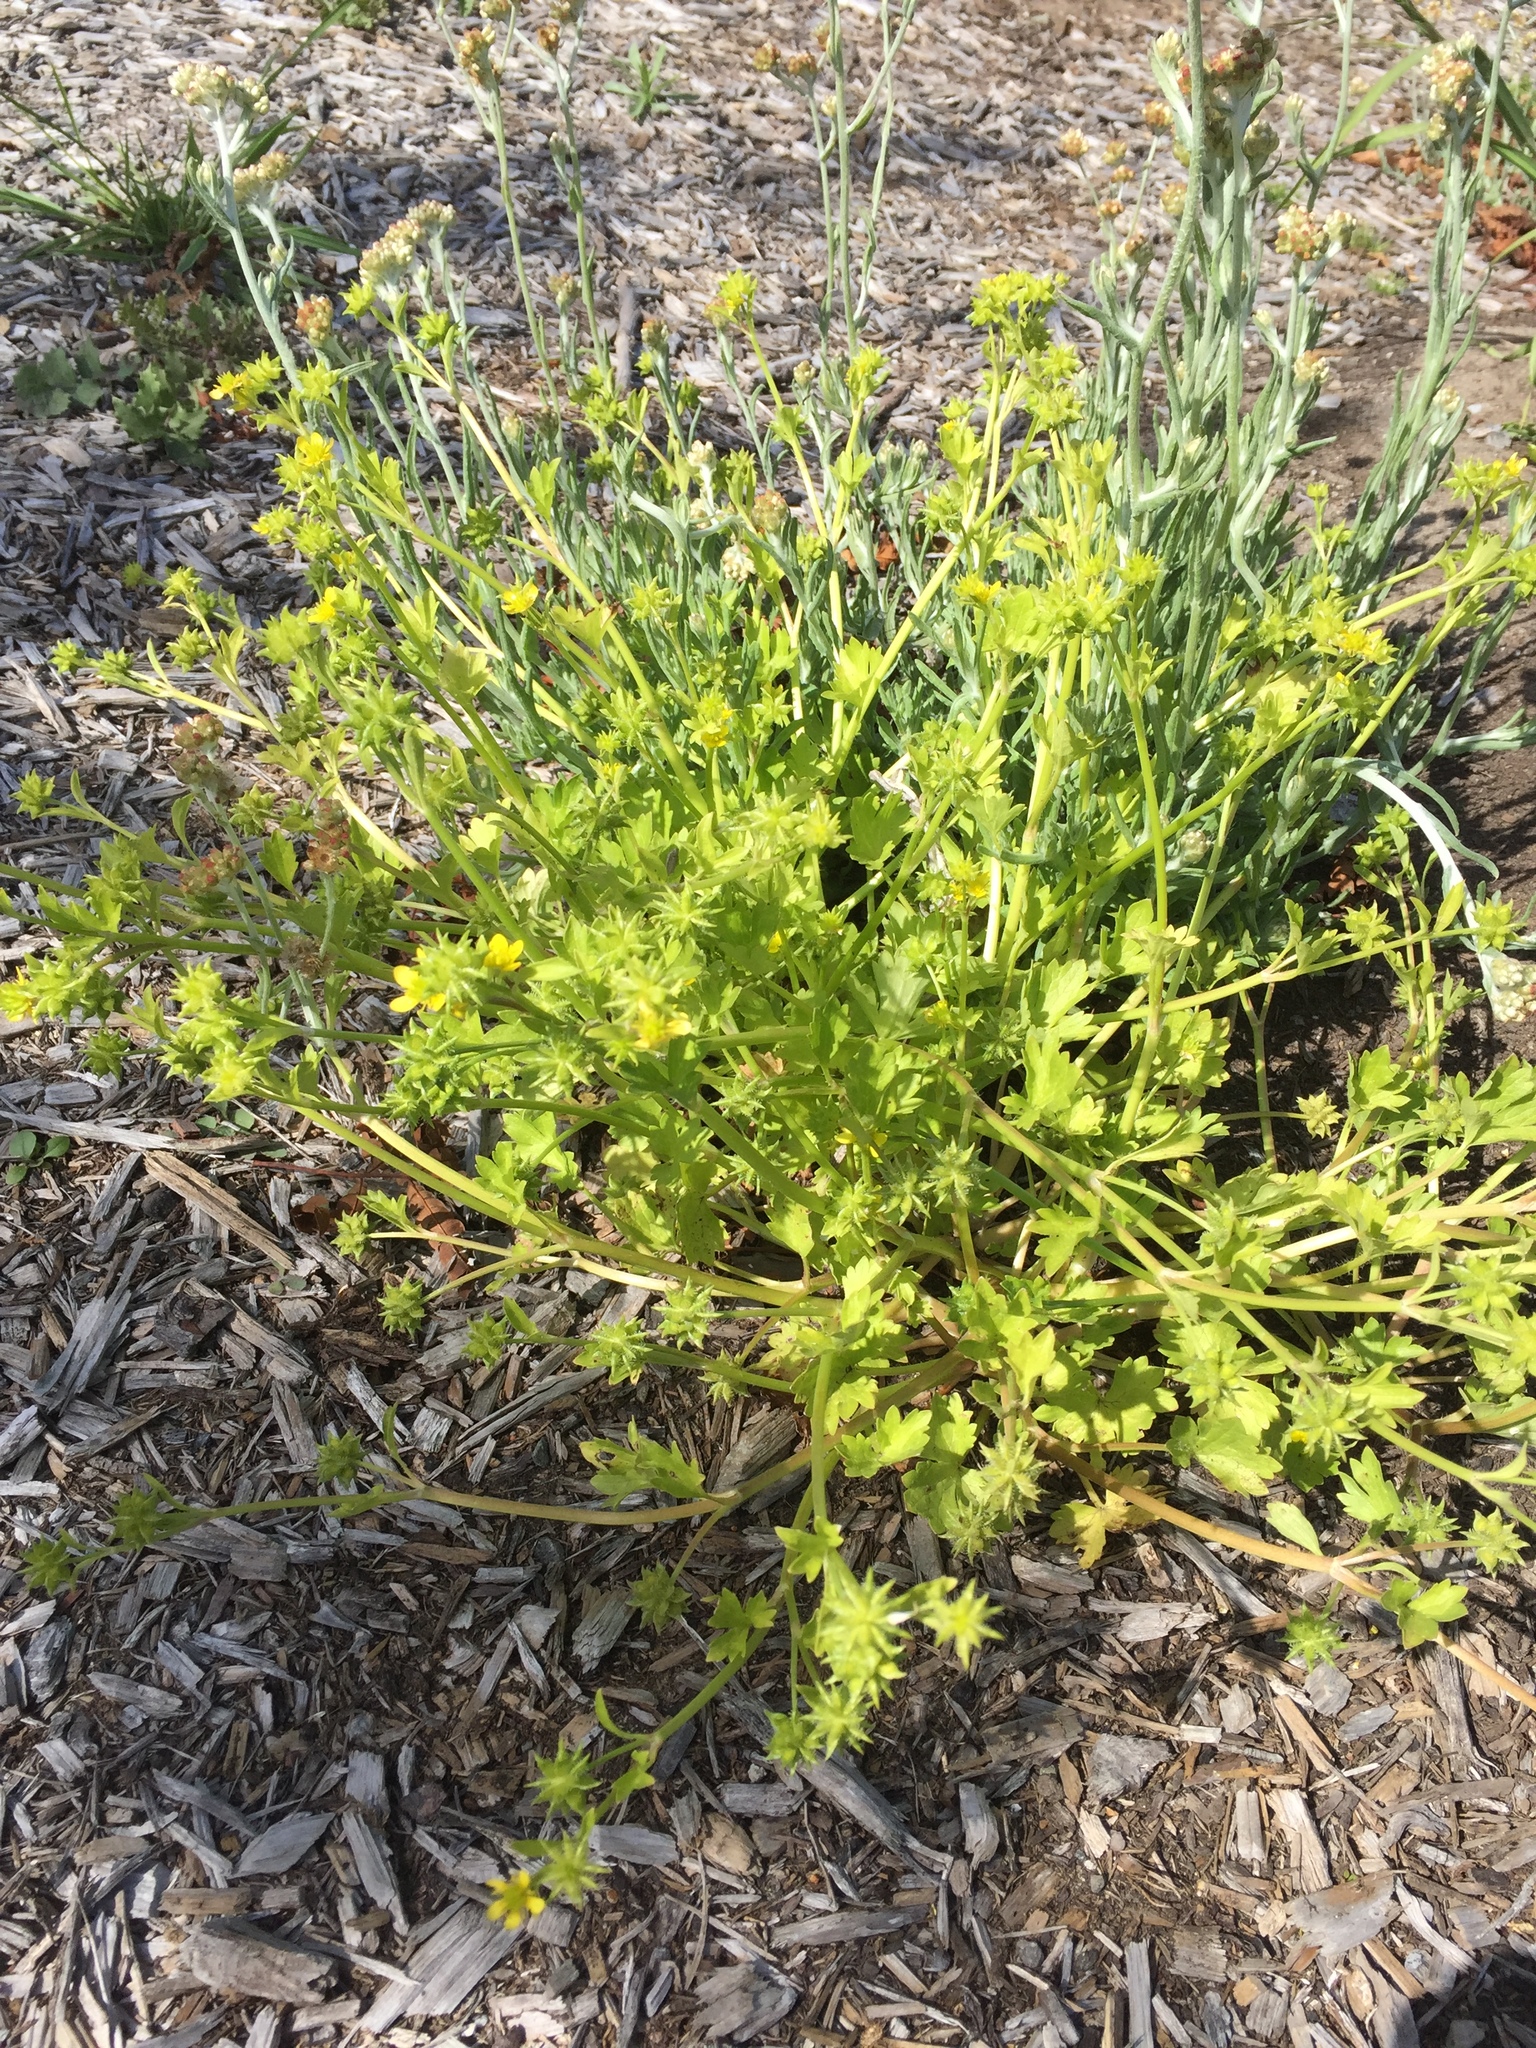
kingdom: Plantae
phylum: Tracheophyta
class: Magnoliopsida
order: Ranunculales
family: Ranunculaceae
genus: Ranunculus
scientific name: Ranunculus muricatus
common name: Rough-fruited buttercup
